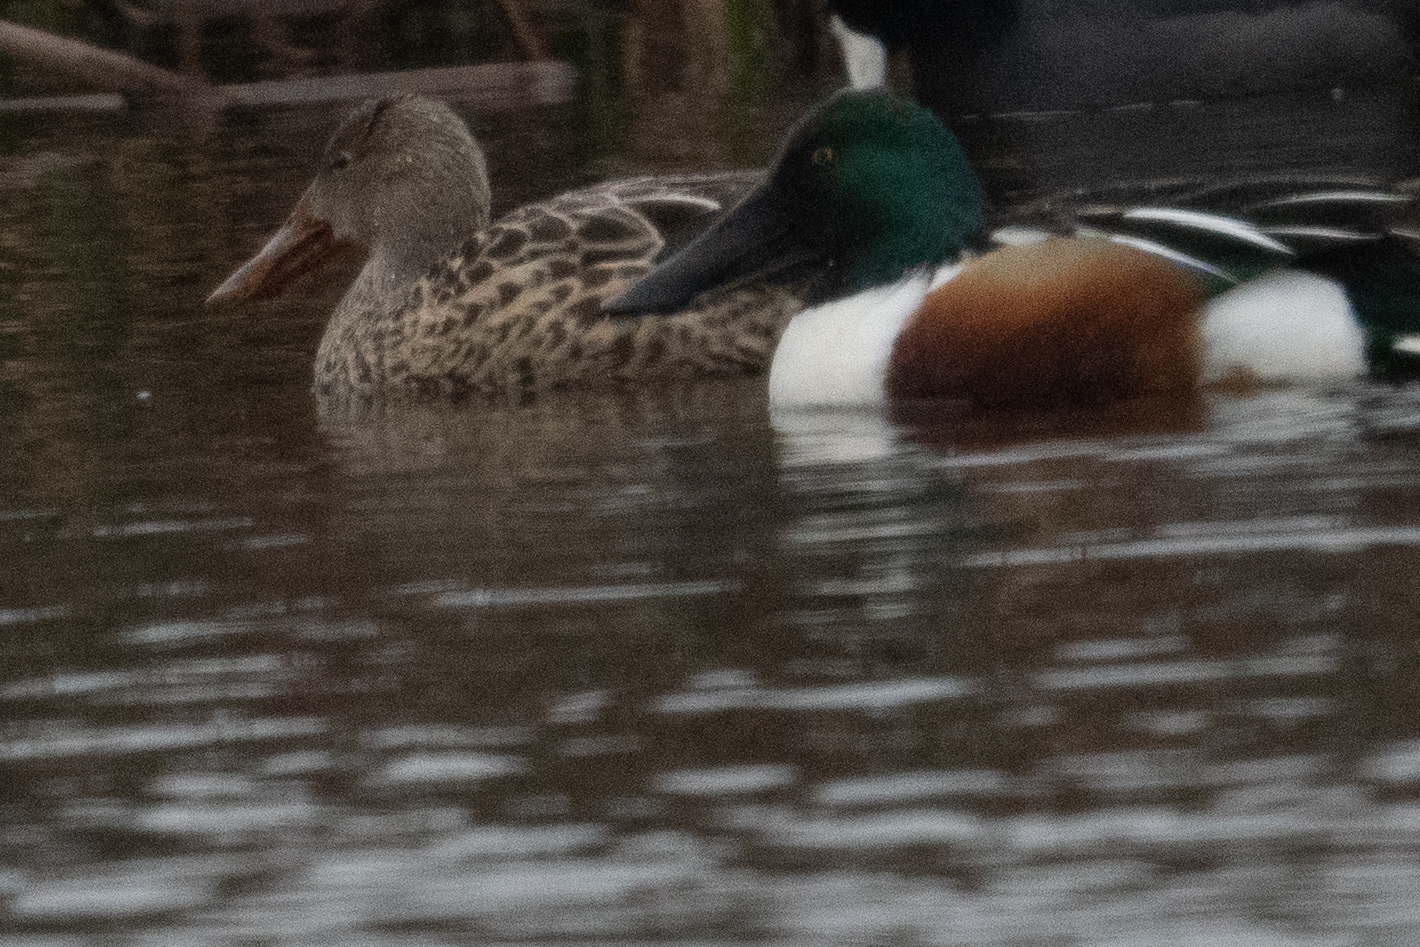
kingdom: Animalia
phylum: Chordata
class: Aves
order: Anseriformes
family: Anatidae
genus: Spatula
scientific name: Spatula clypeata
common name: Northern shoveler
